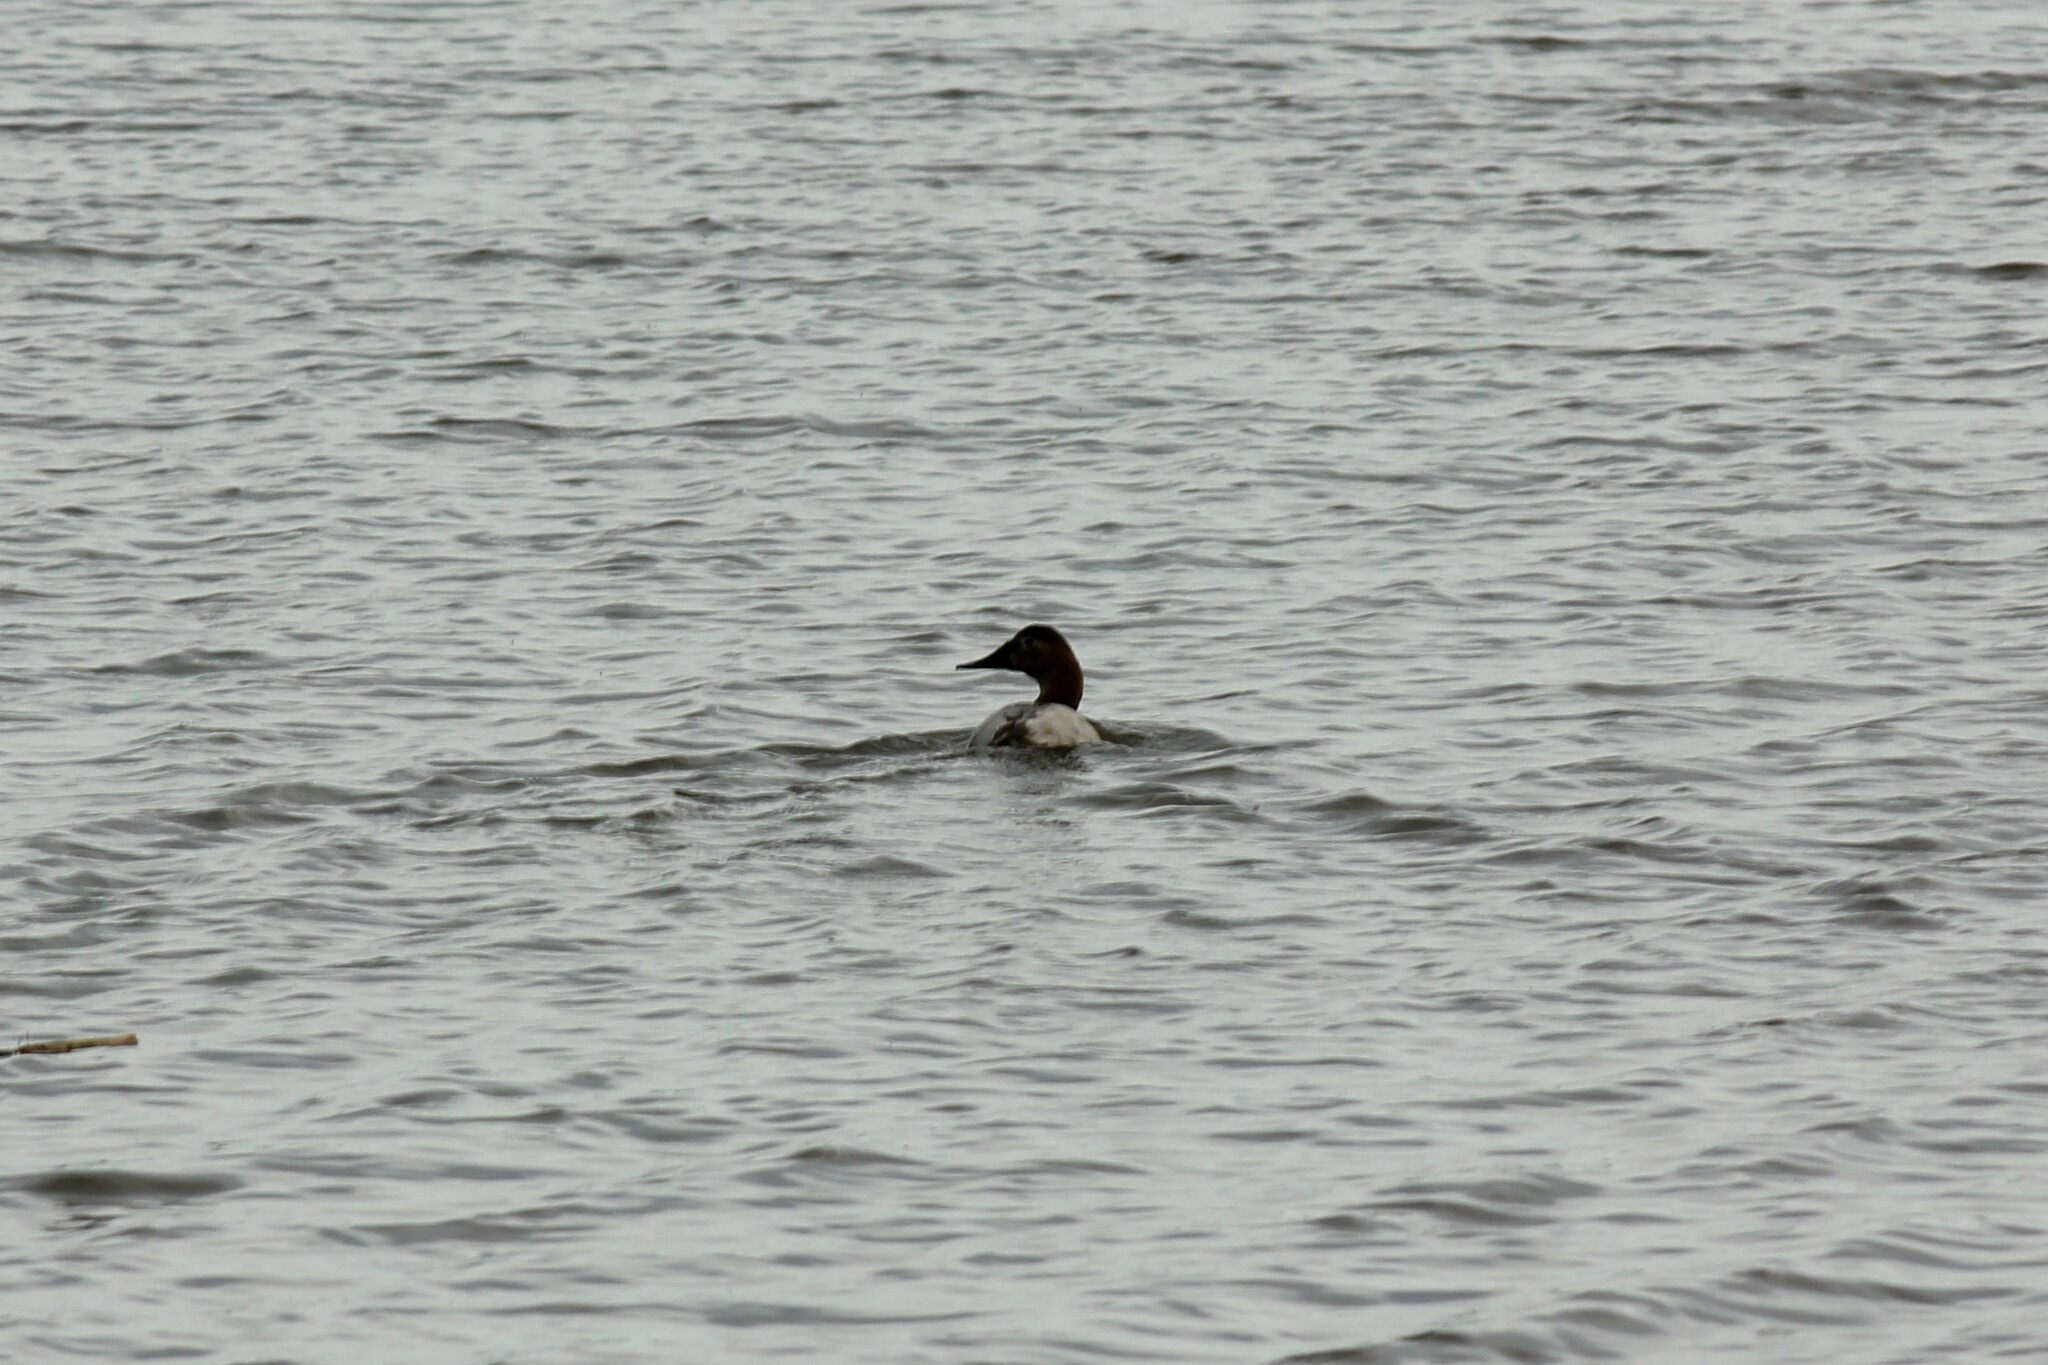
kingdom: Animalia
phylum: Chordata
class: Aves
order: Anseriformes
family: Anatidae
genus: Aythya
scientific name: Aythya valisineria
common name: Canvasback
